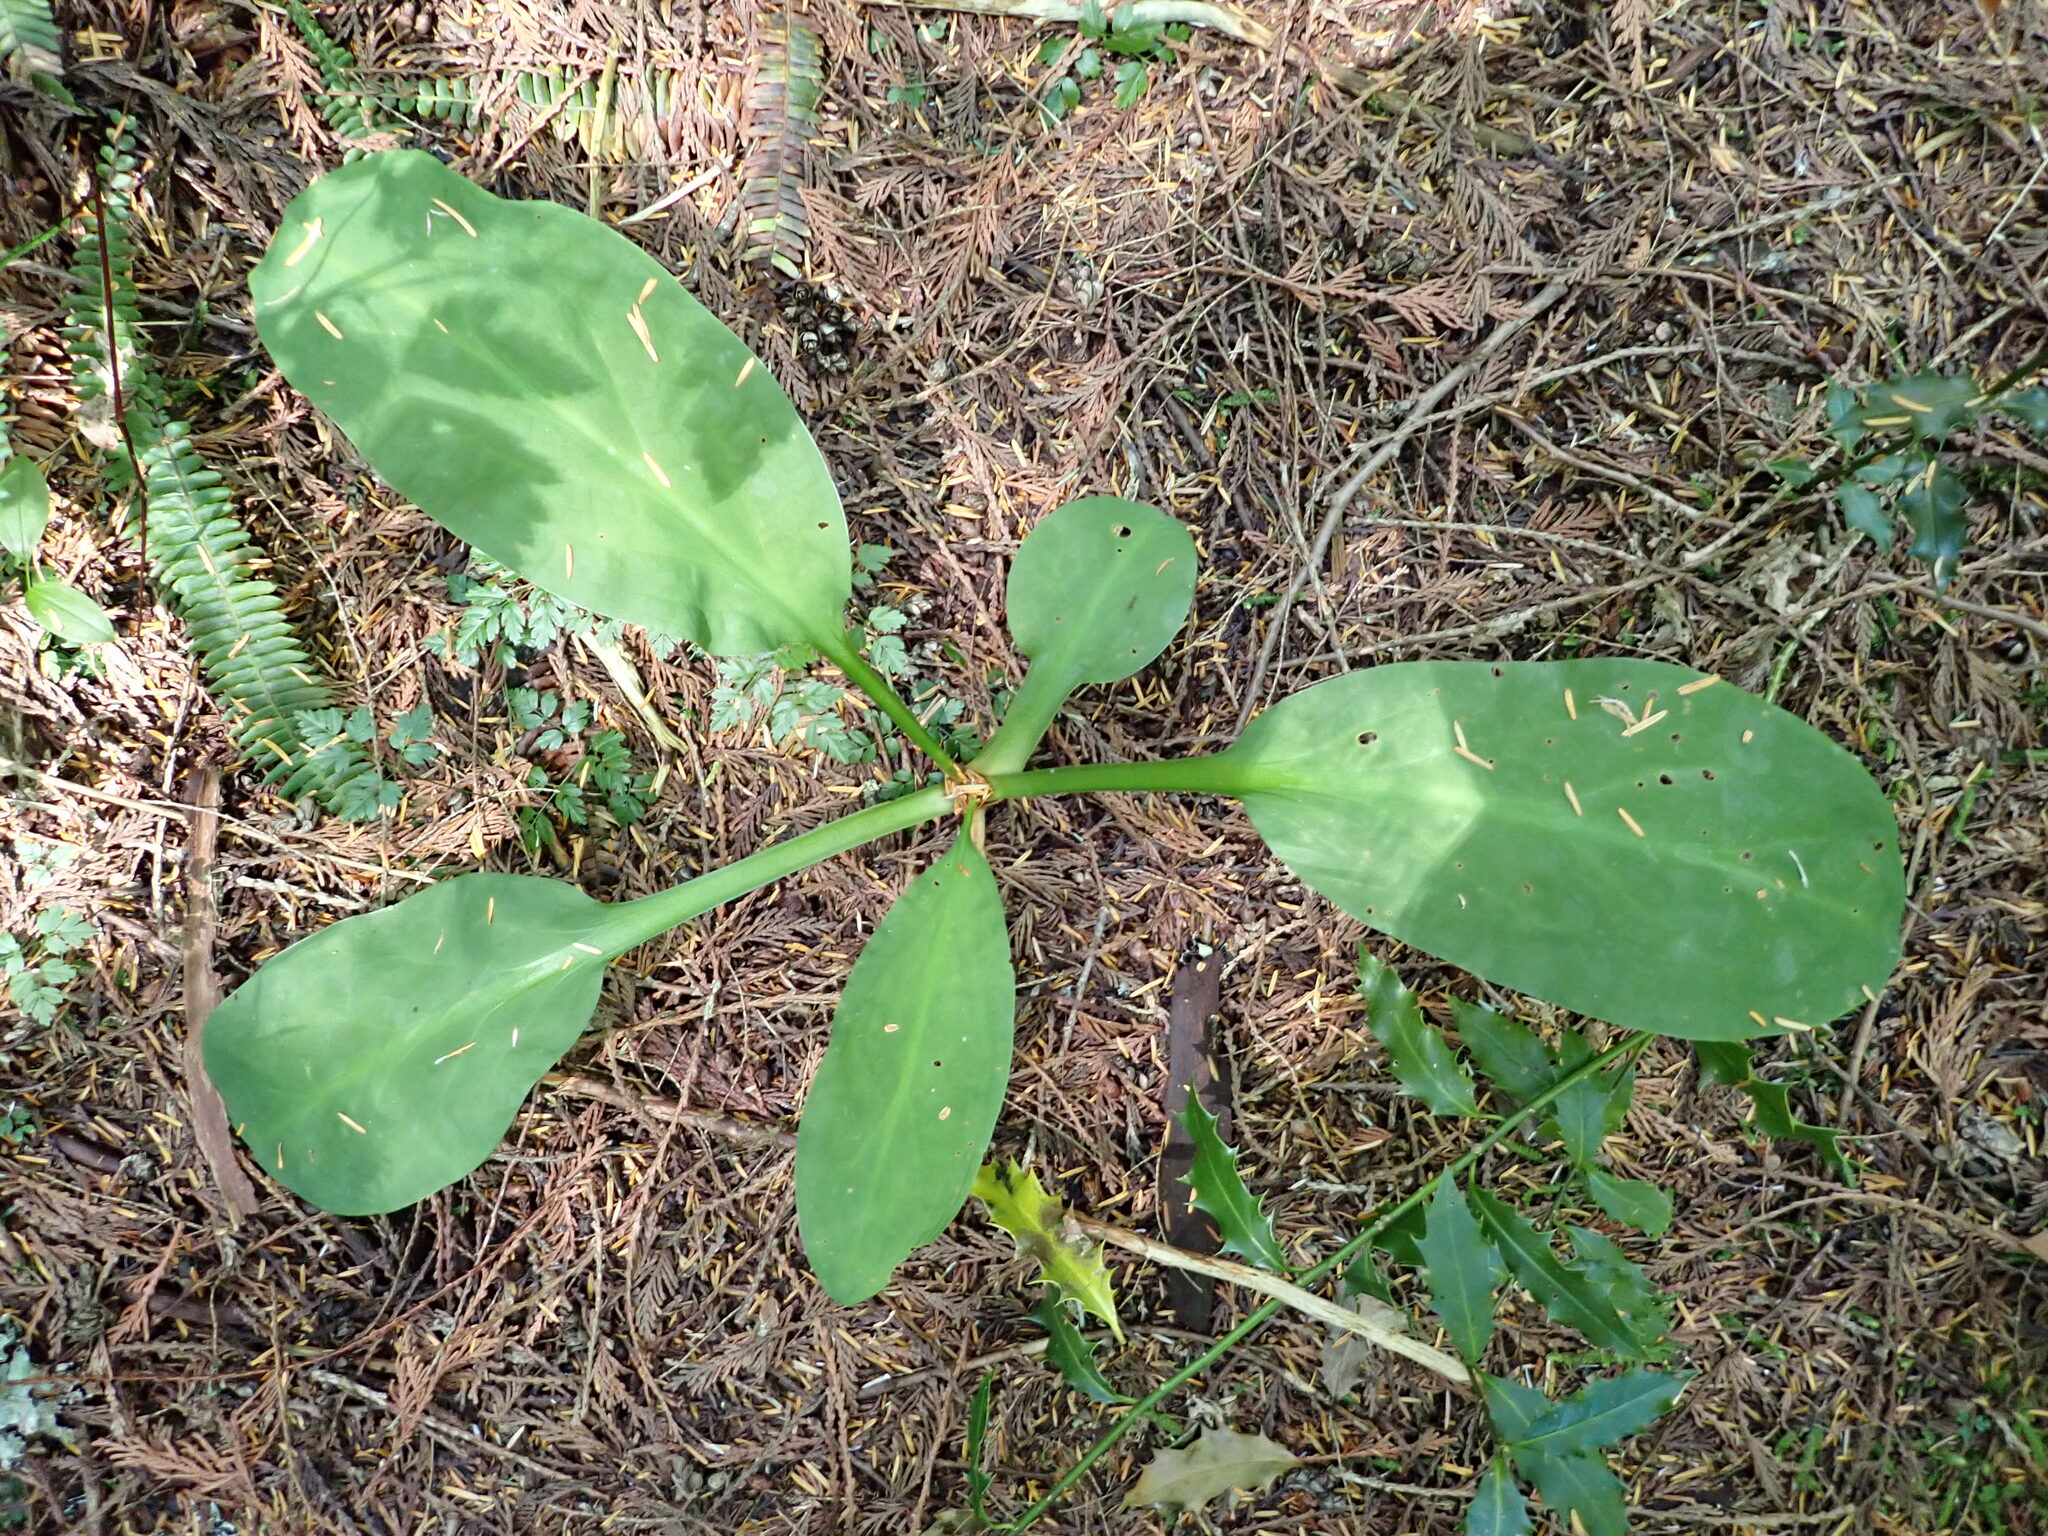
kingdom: Plantae
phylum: Tracheophyta
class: Liliopsida
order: Alismatales
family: Araceae
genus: Lysichiton
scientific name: Lysichiton americanus
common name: American skunk cabbage
